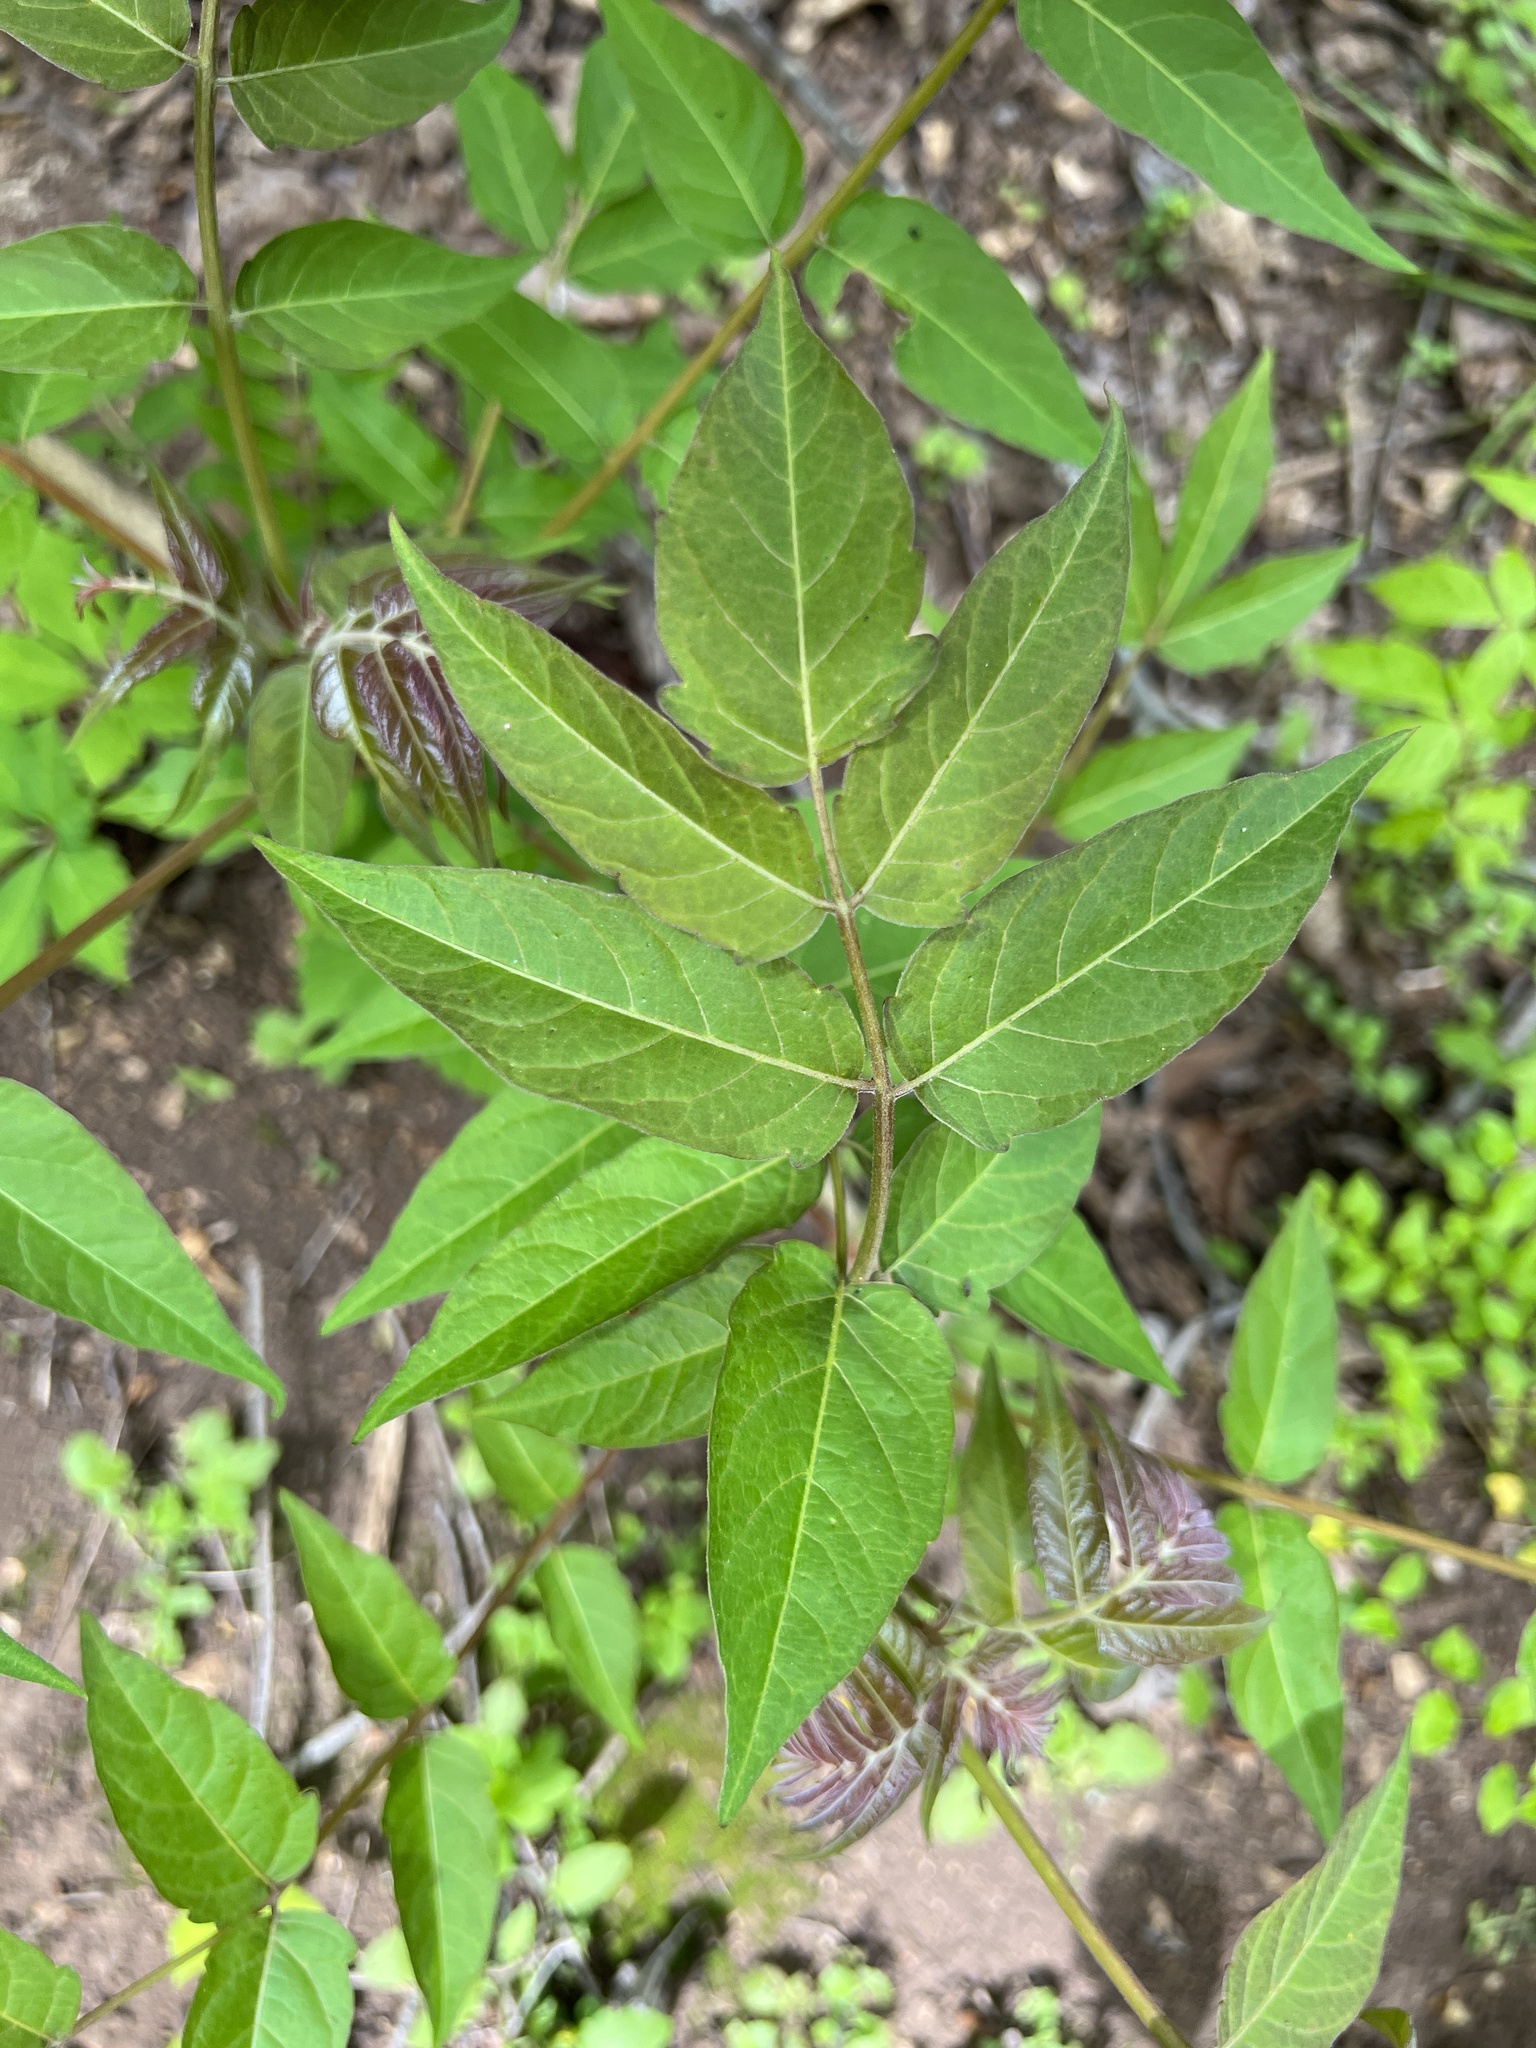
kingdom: Plantae
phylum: Tracheophyta
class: Magnoliopsida
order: Sapindales
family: Simaroubaceae
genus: Ailanthus
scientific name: Ailanthus altissima
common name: Tree-of-heaven
